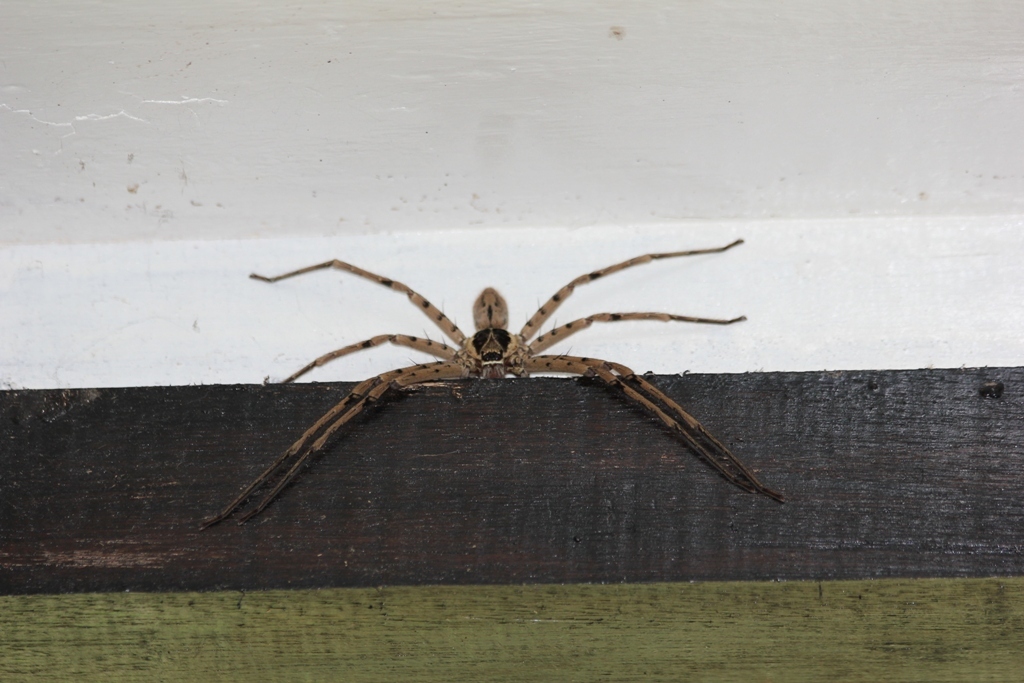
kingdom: Animalia
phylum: Arthropoda
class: Arachnida
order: Araneae
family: Sparassidae
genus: Heteropoda
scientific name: Heteropoda venatoria
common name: Huntsman spider
